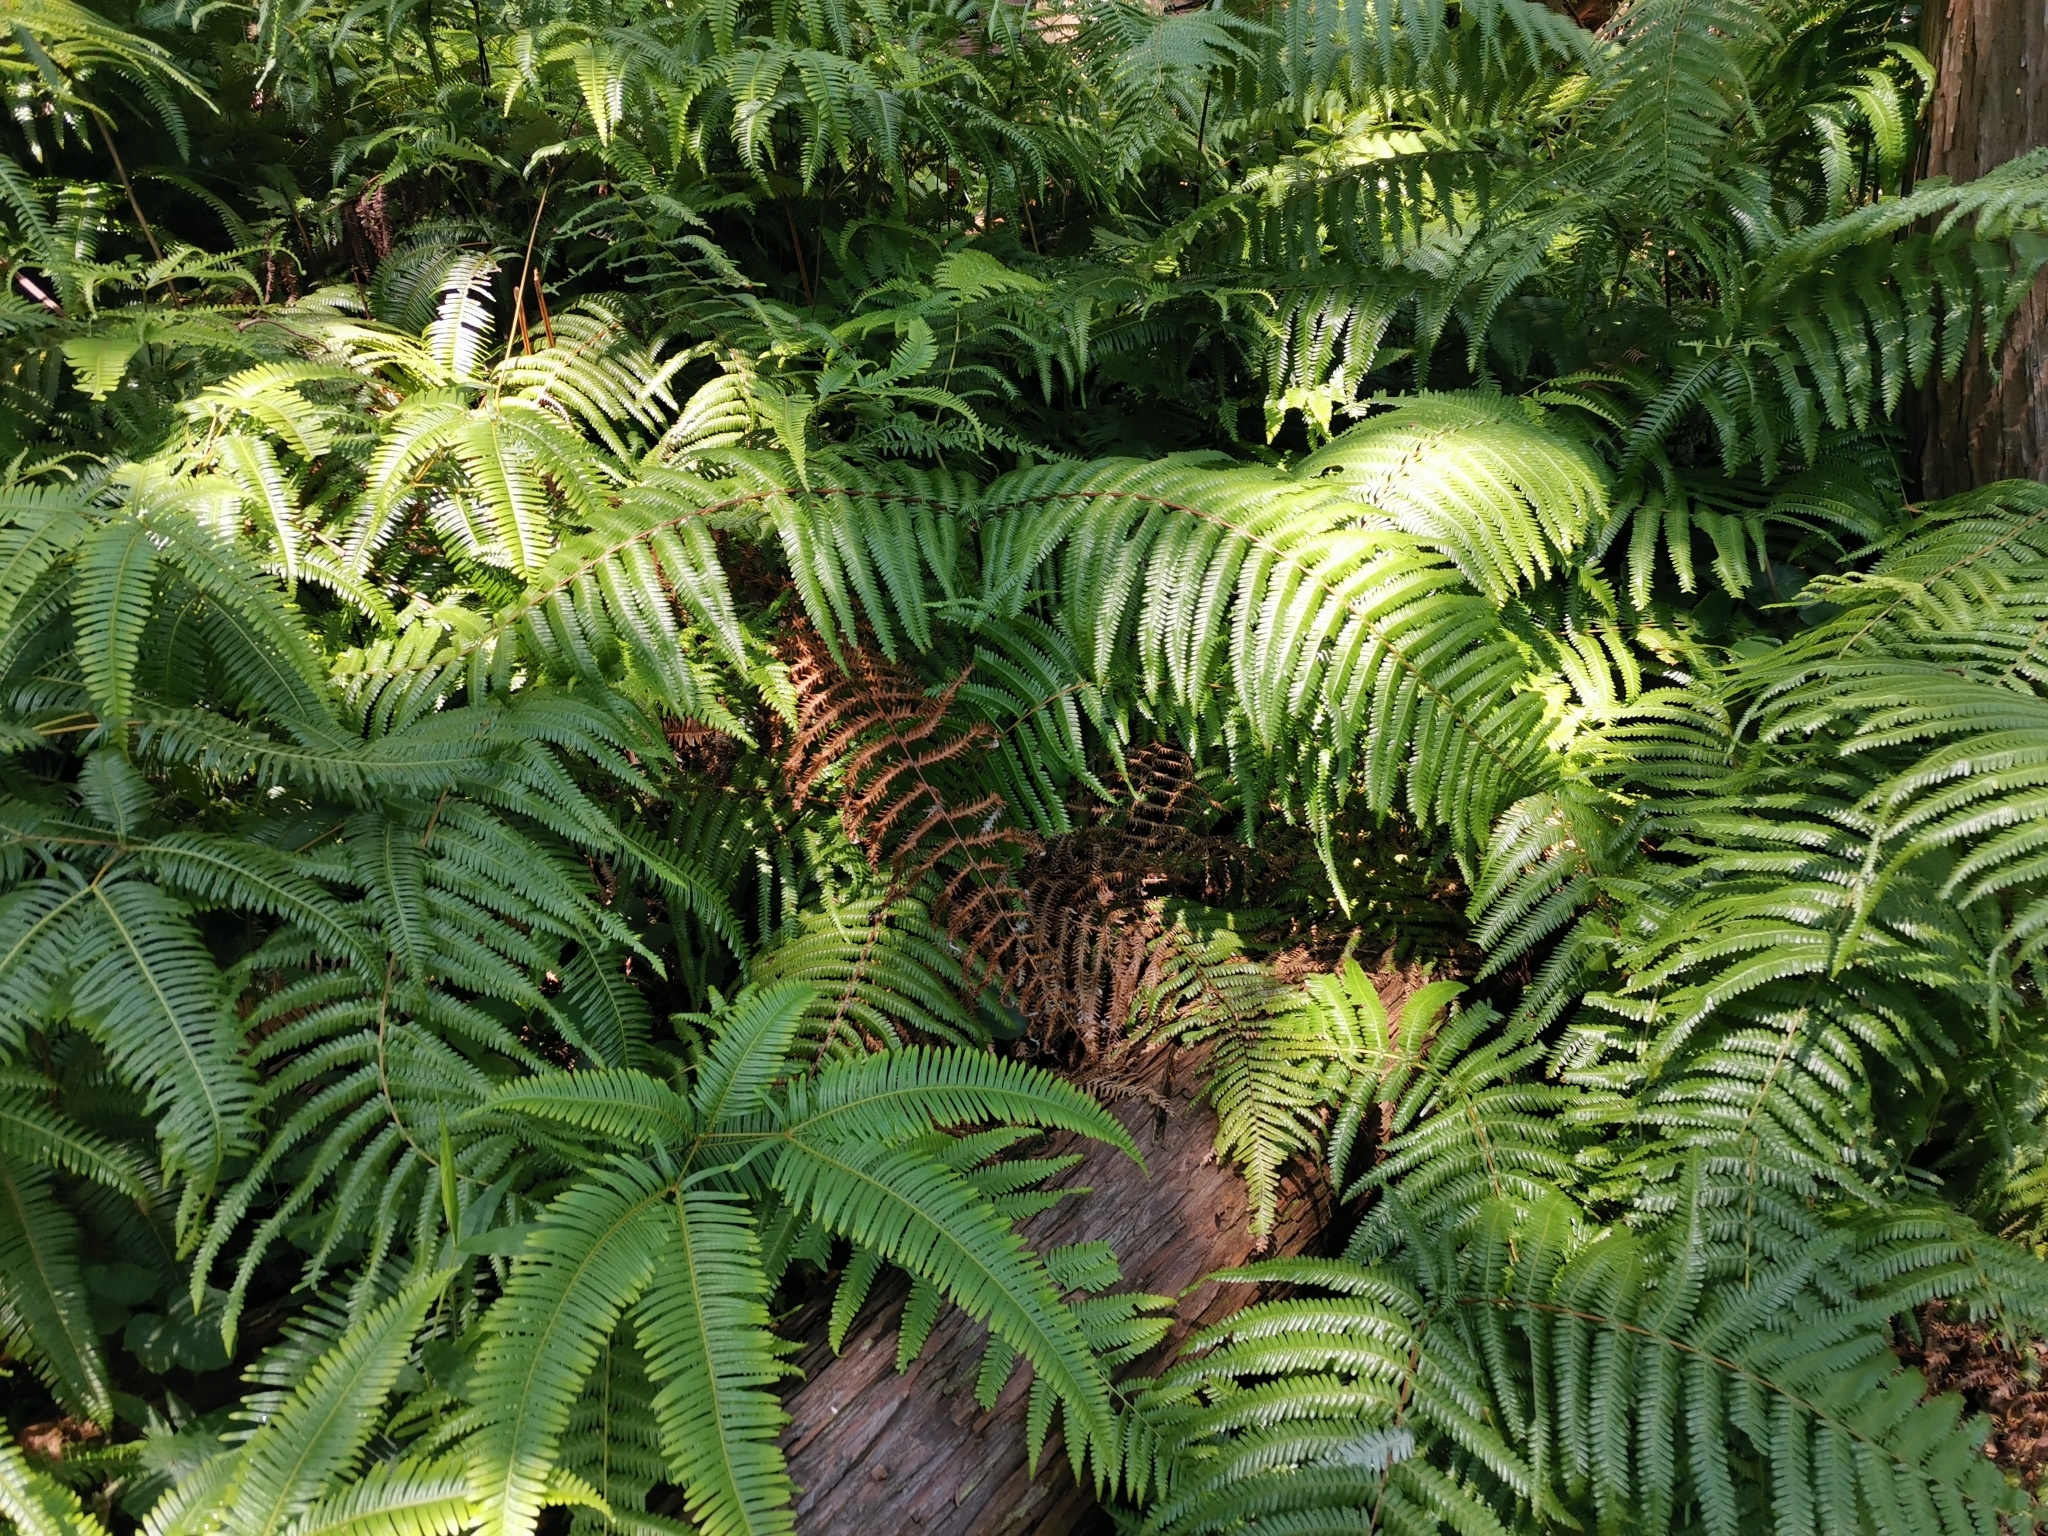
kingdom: Plantae
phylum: Tracheophyta
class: Polypodiopsida
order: Gleicheniales
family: Gleicheniaceae
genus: Diplopterygium
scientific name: Diplopterygium glaucum
